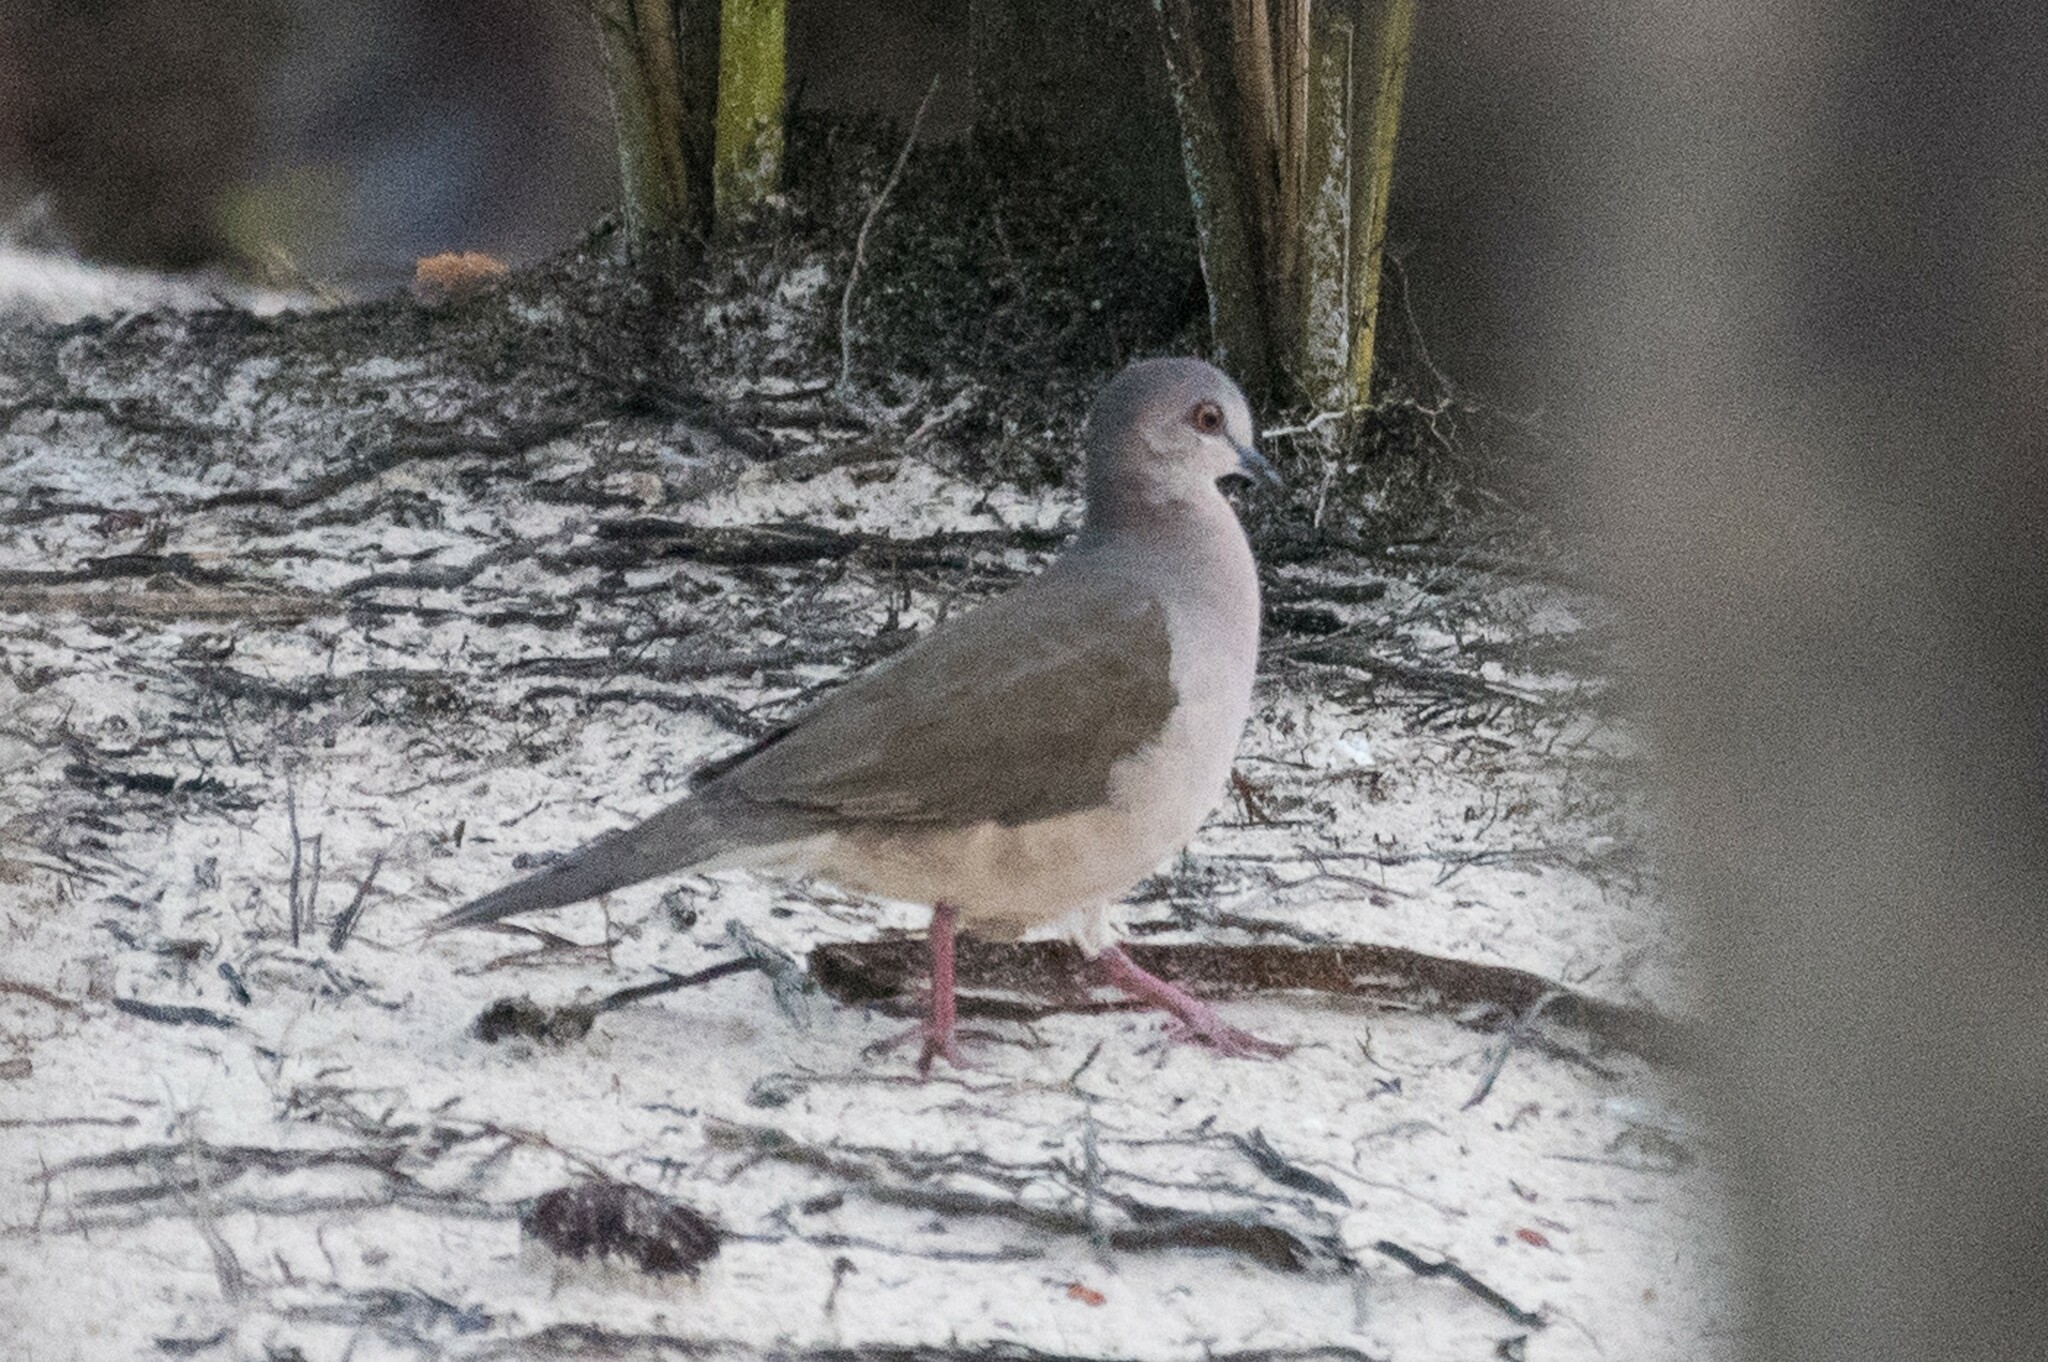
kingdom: Animalia
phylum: Chordata
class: Aves
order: Columbiformes
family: Columbidae
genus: Leptotila
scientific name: Leptotila verreauxi
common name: White-tipped dove
